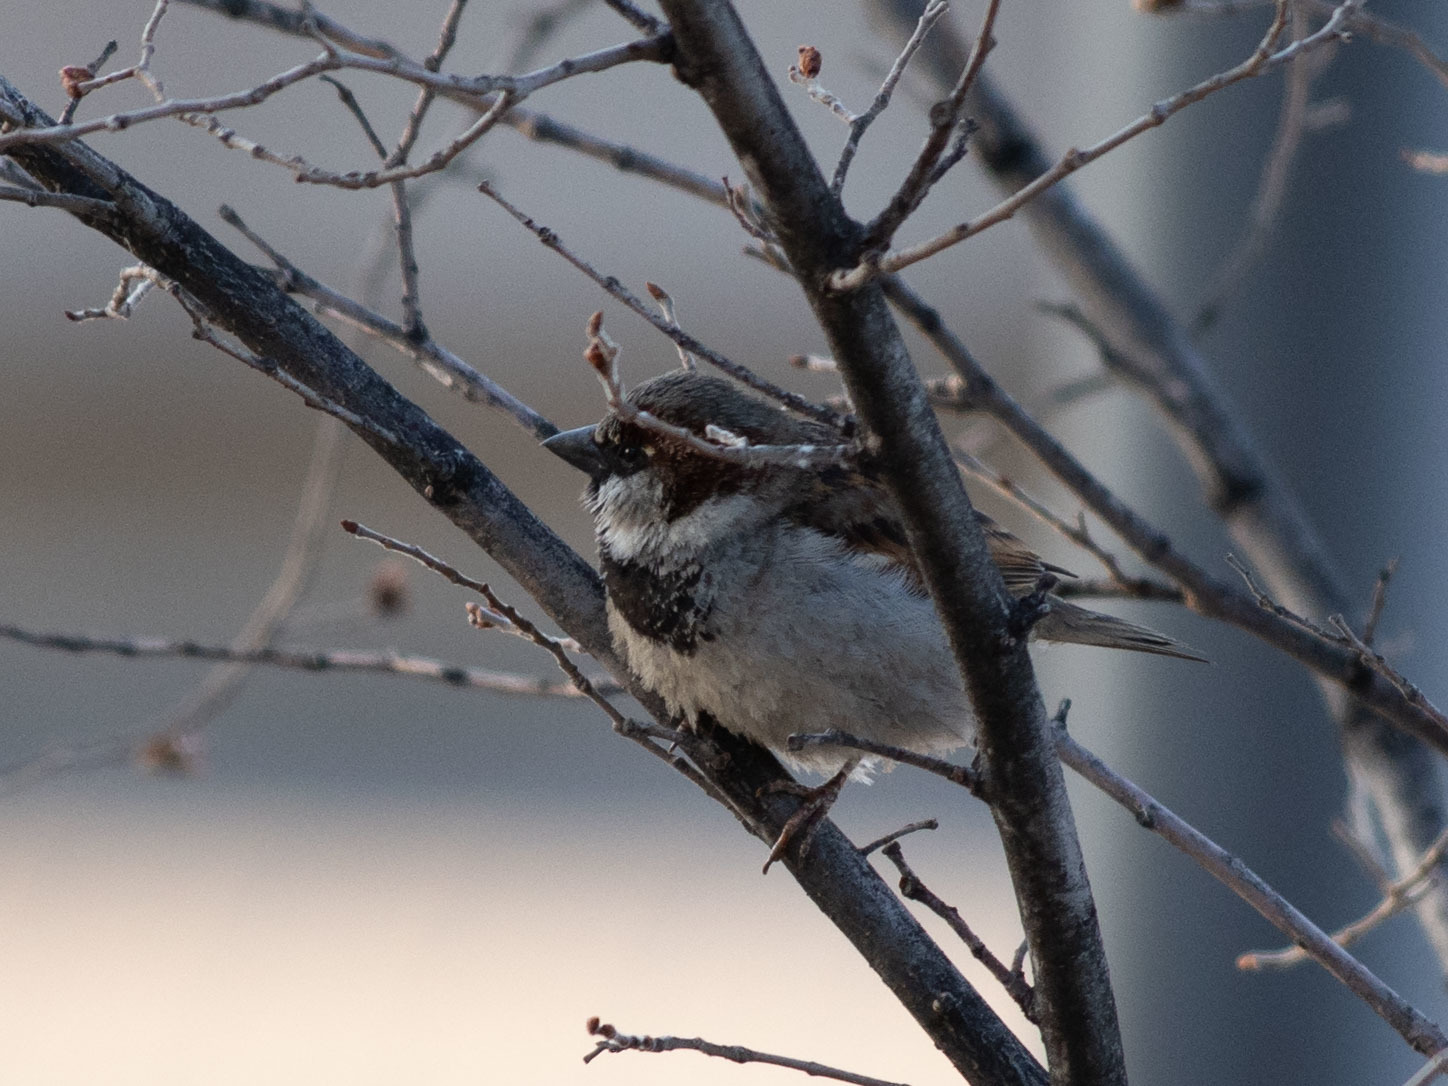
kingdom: Animalia
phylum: Chordata
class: Aves
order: Passeriformes
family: Passeridae
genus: Passer
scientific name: Passer domesticus
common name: House sparrow
